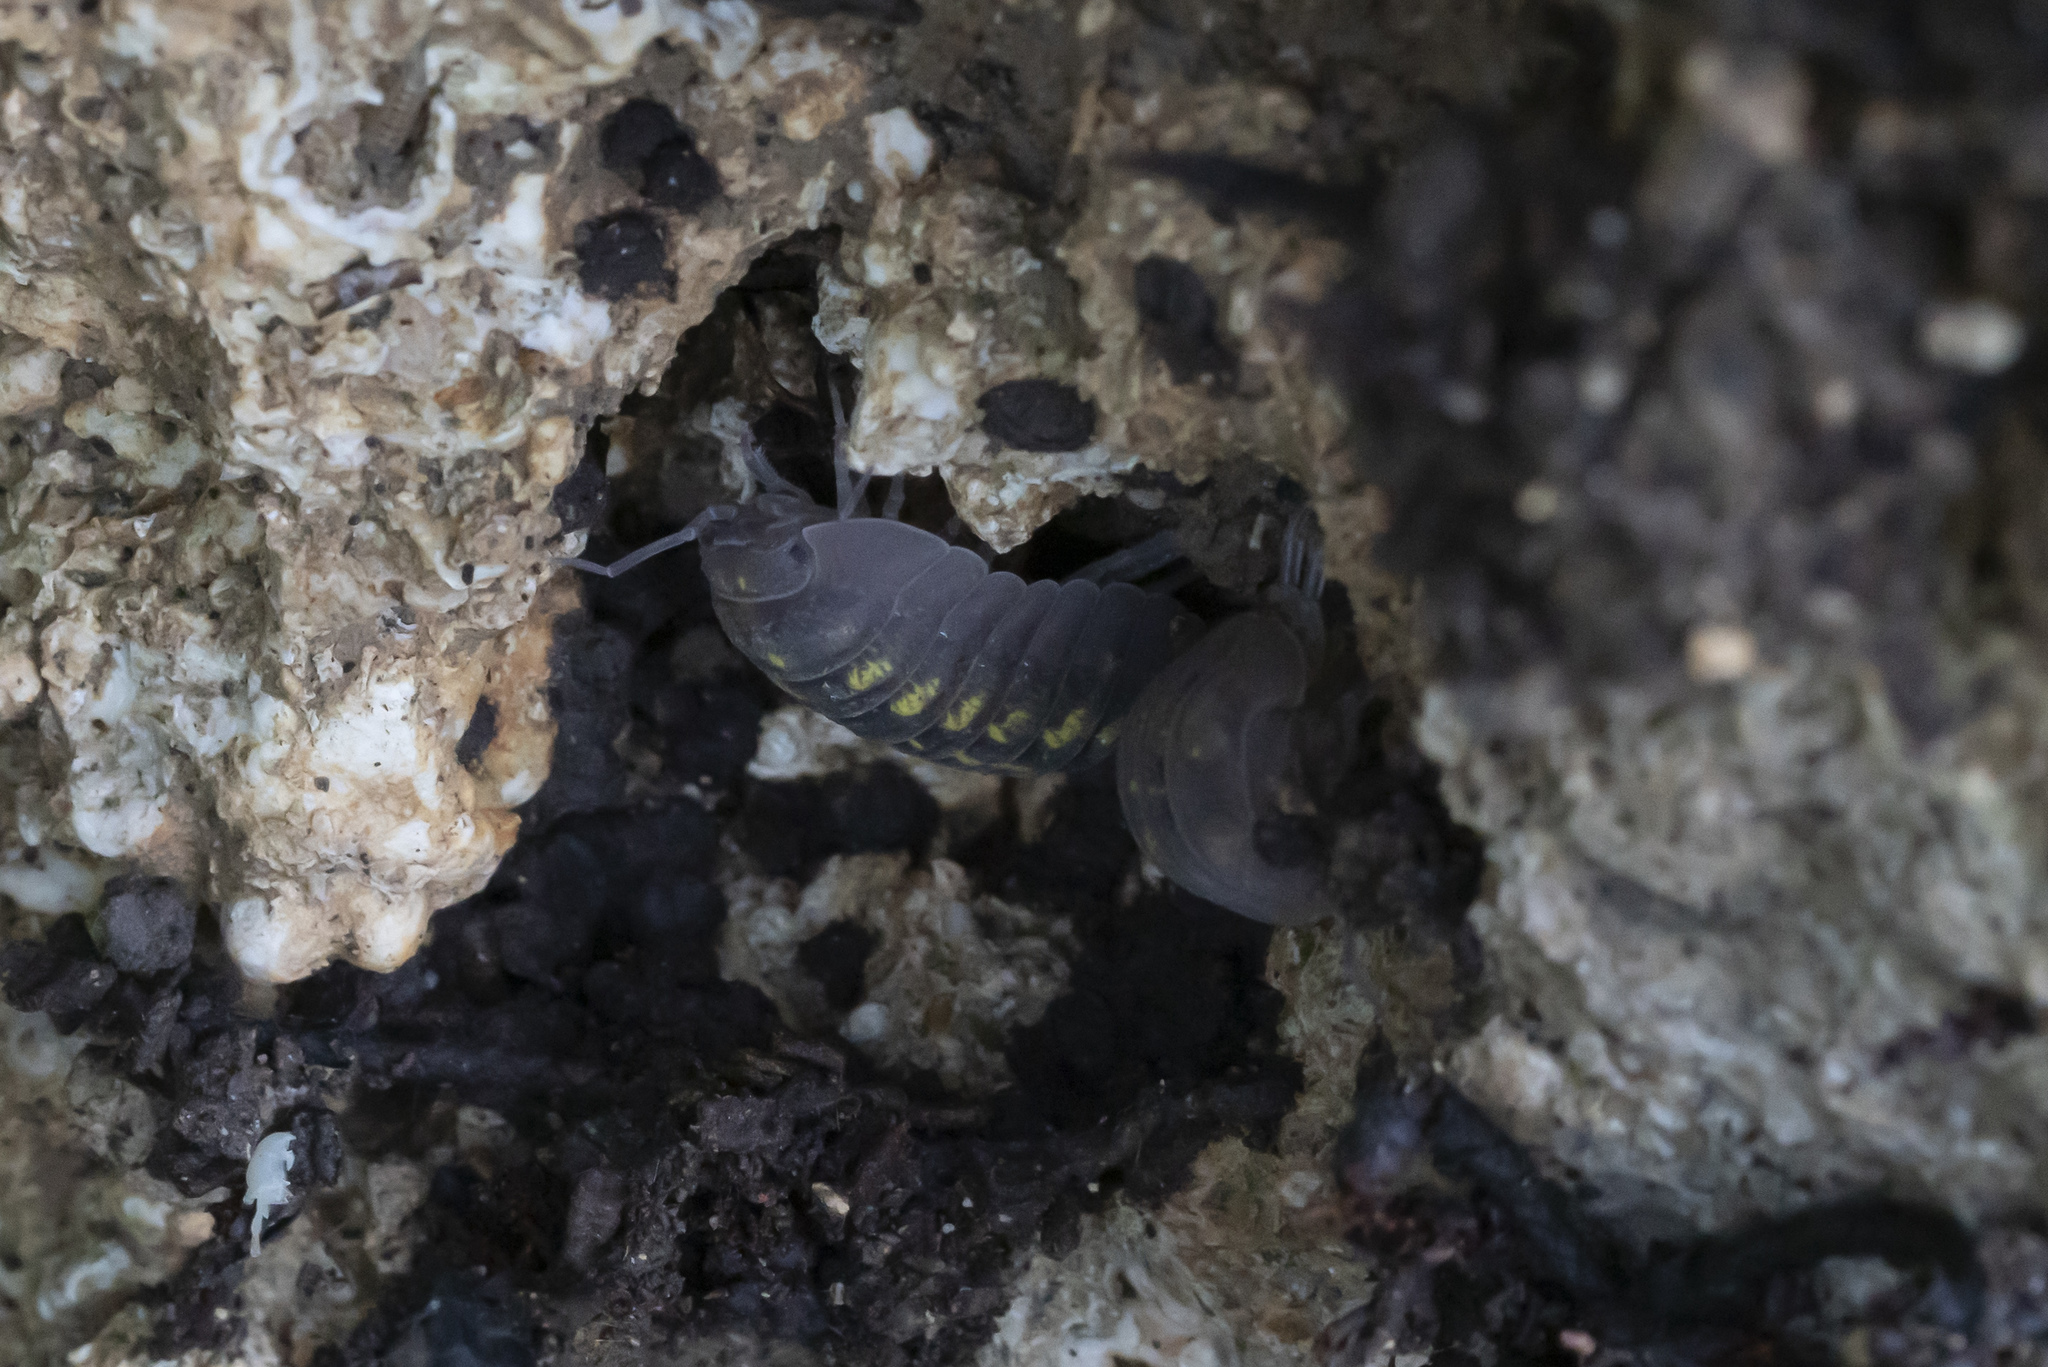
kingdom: Animalia
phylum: Arthropoda
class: Malacostraca
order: Isopoda
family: Armadillidiidae
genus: Armadillidium
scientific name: Armadillidium granulatum
